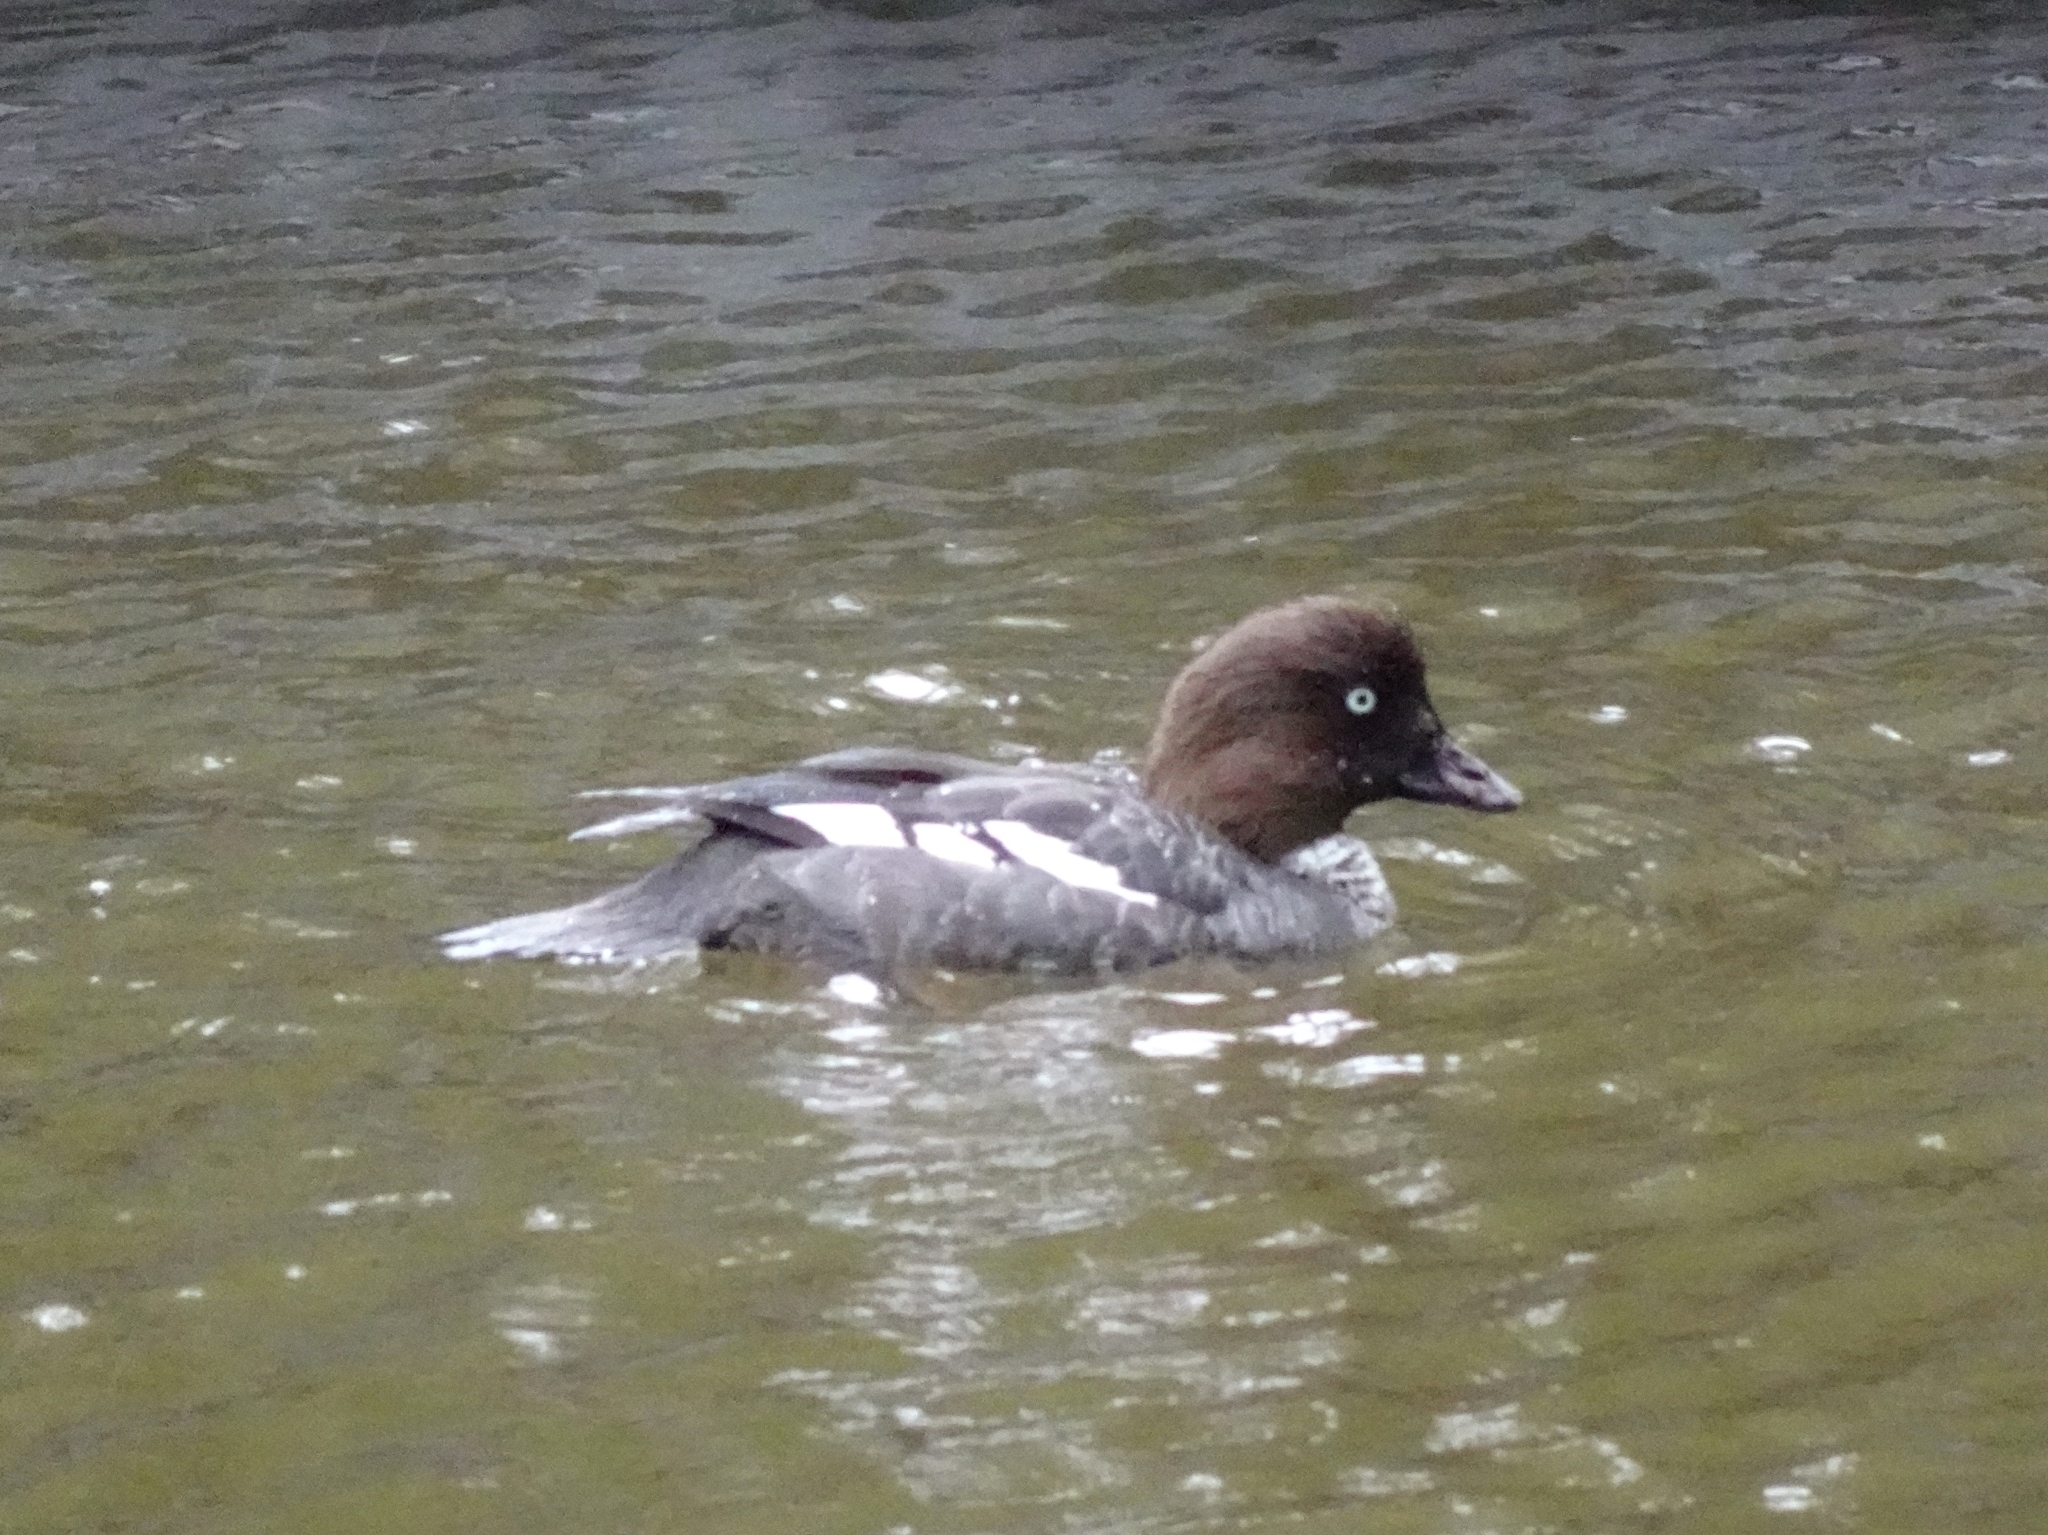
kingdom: Animalia
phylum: Chordata
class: Aves
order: Anseriformes
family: Anatidae
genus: Bucephala
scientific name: Bucephala clangula
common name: Common goldeneye
